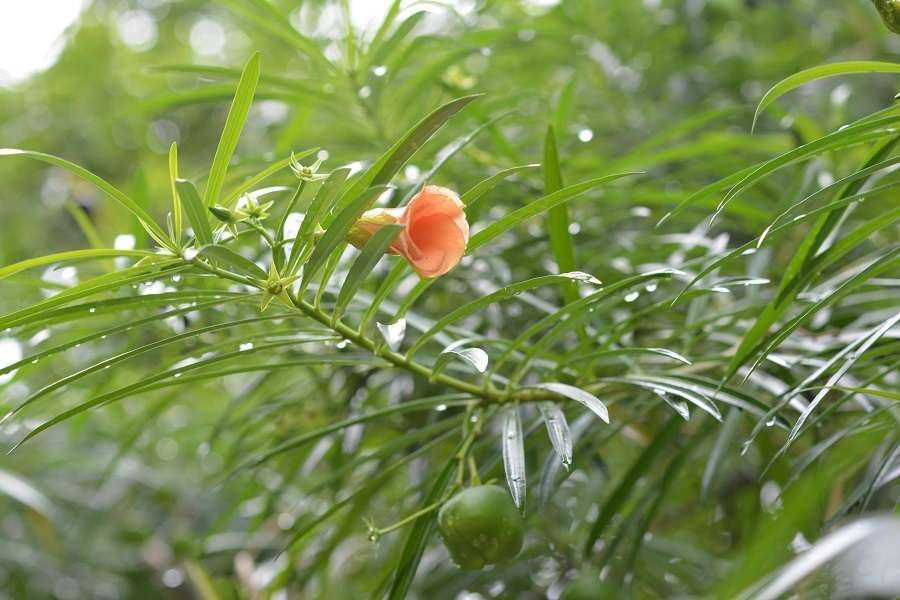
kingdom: Plantae
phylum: Tracheophyta
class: Magnoliopsida
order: Gentianales
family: Apocynaceae
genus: Cascabela
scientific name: Cascabela thevetia
